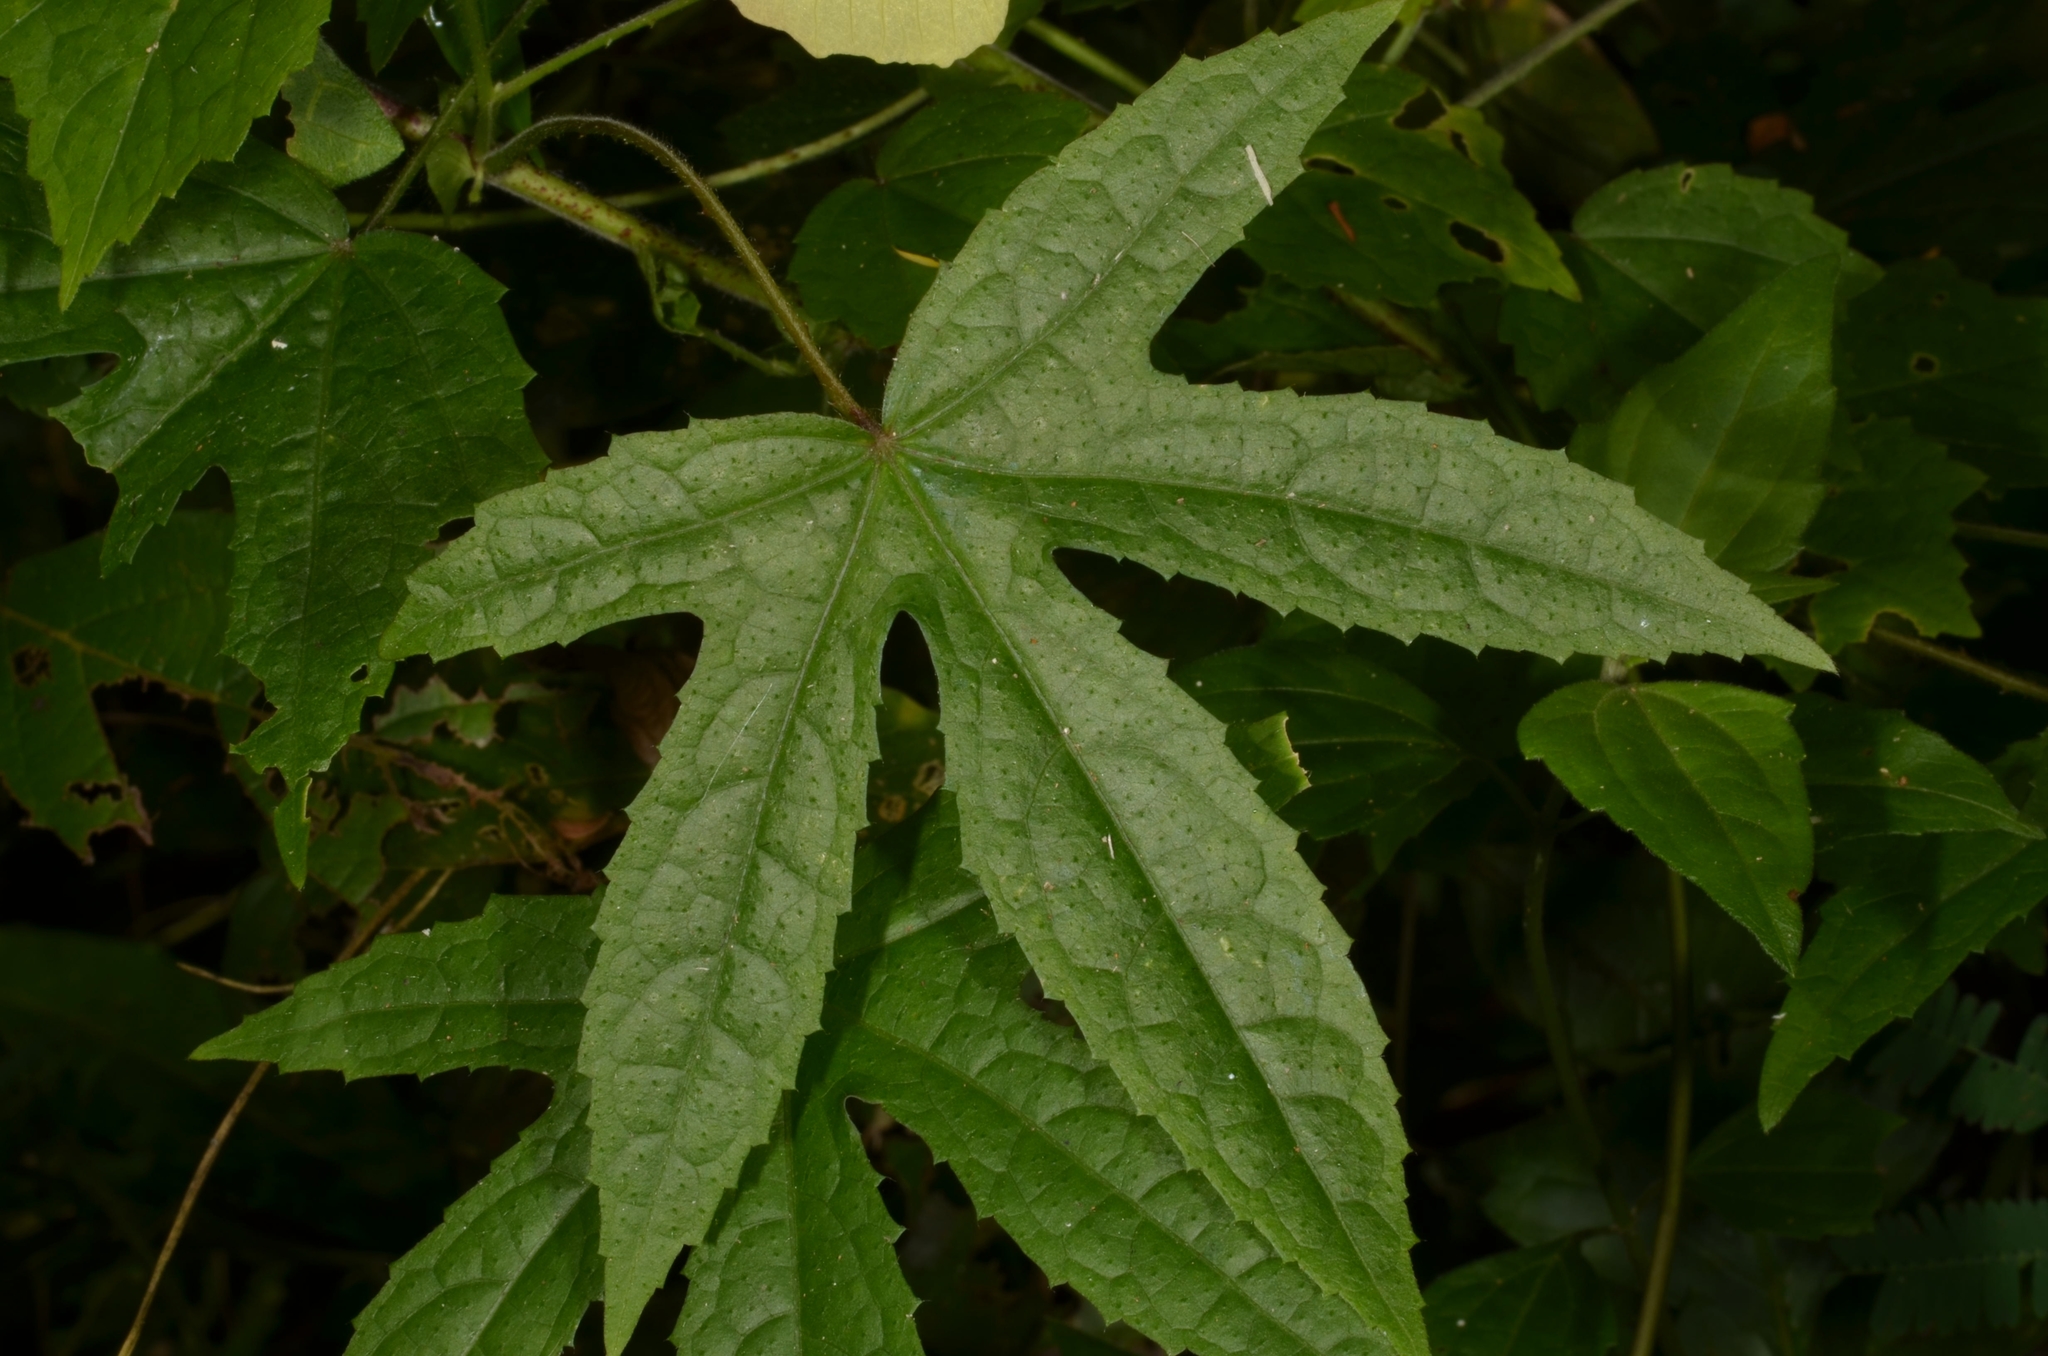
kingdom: Plantae
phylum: Tracheophyta
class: Magnoliopsida
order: Malvales
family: Malvaceae
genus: Hibiscus
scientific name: Hibiscus surattensis
